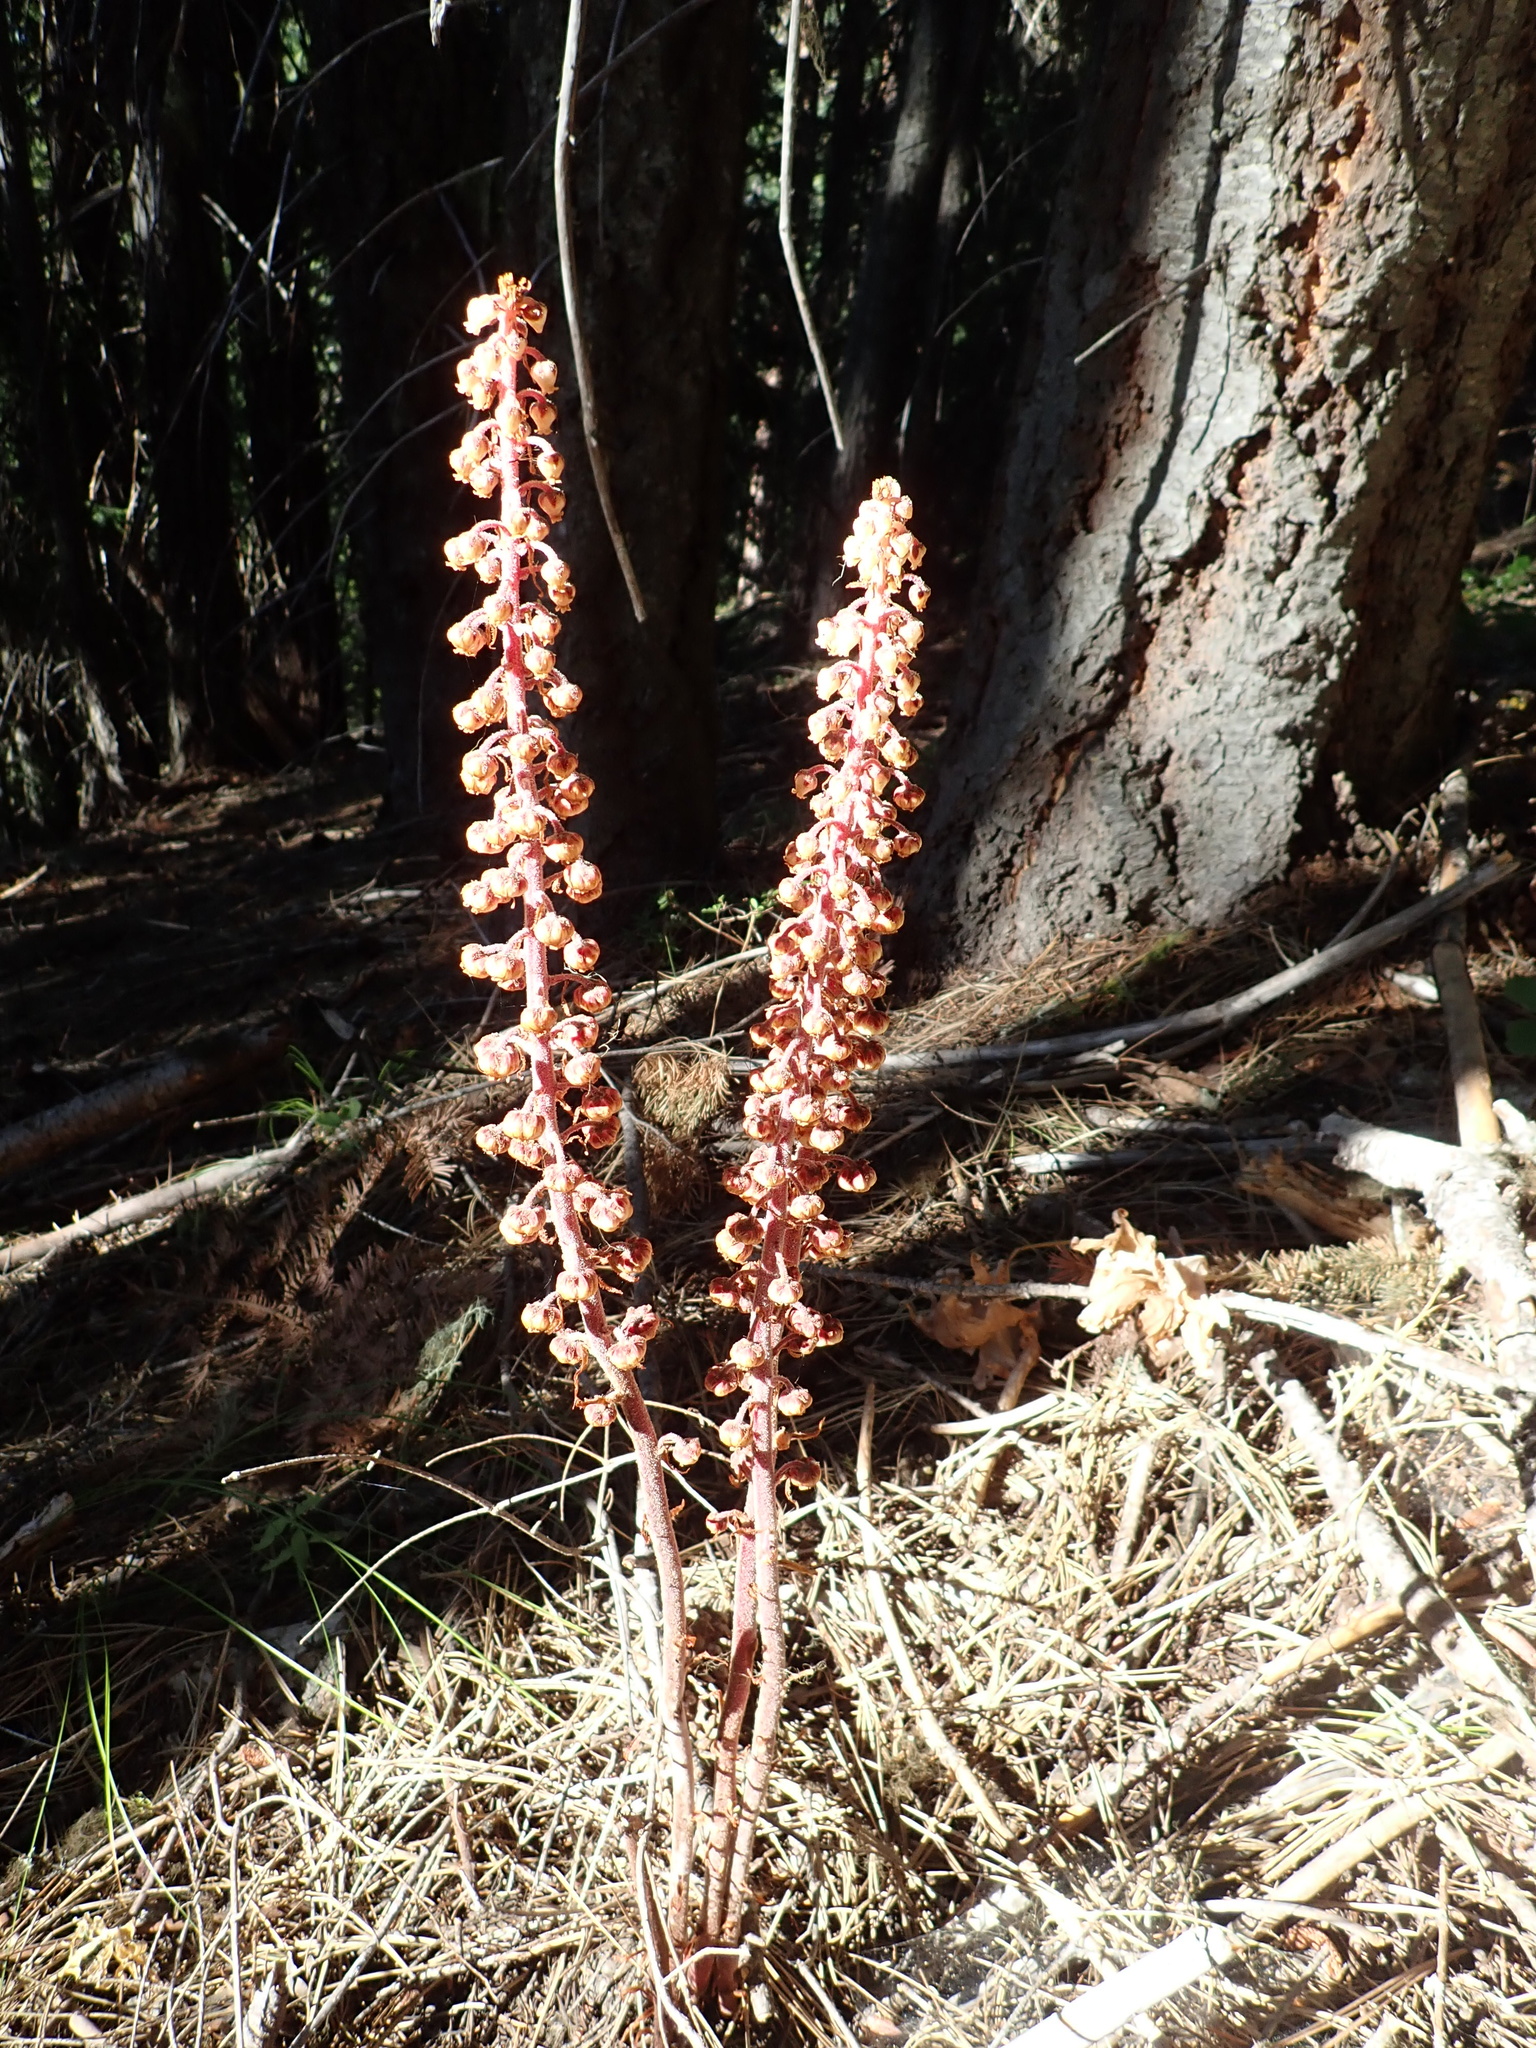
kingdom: Plantae
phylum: Tracheophyta
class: Magnoliopsida
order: Ericales
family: Ericaceae
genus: Pterospora
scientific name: Pterospora andromedea
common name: Giant bird's-nest
